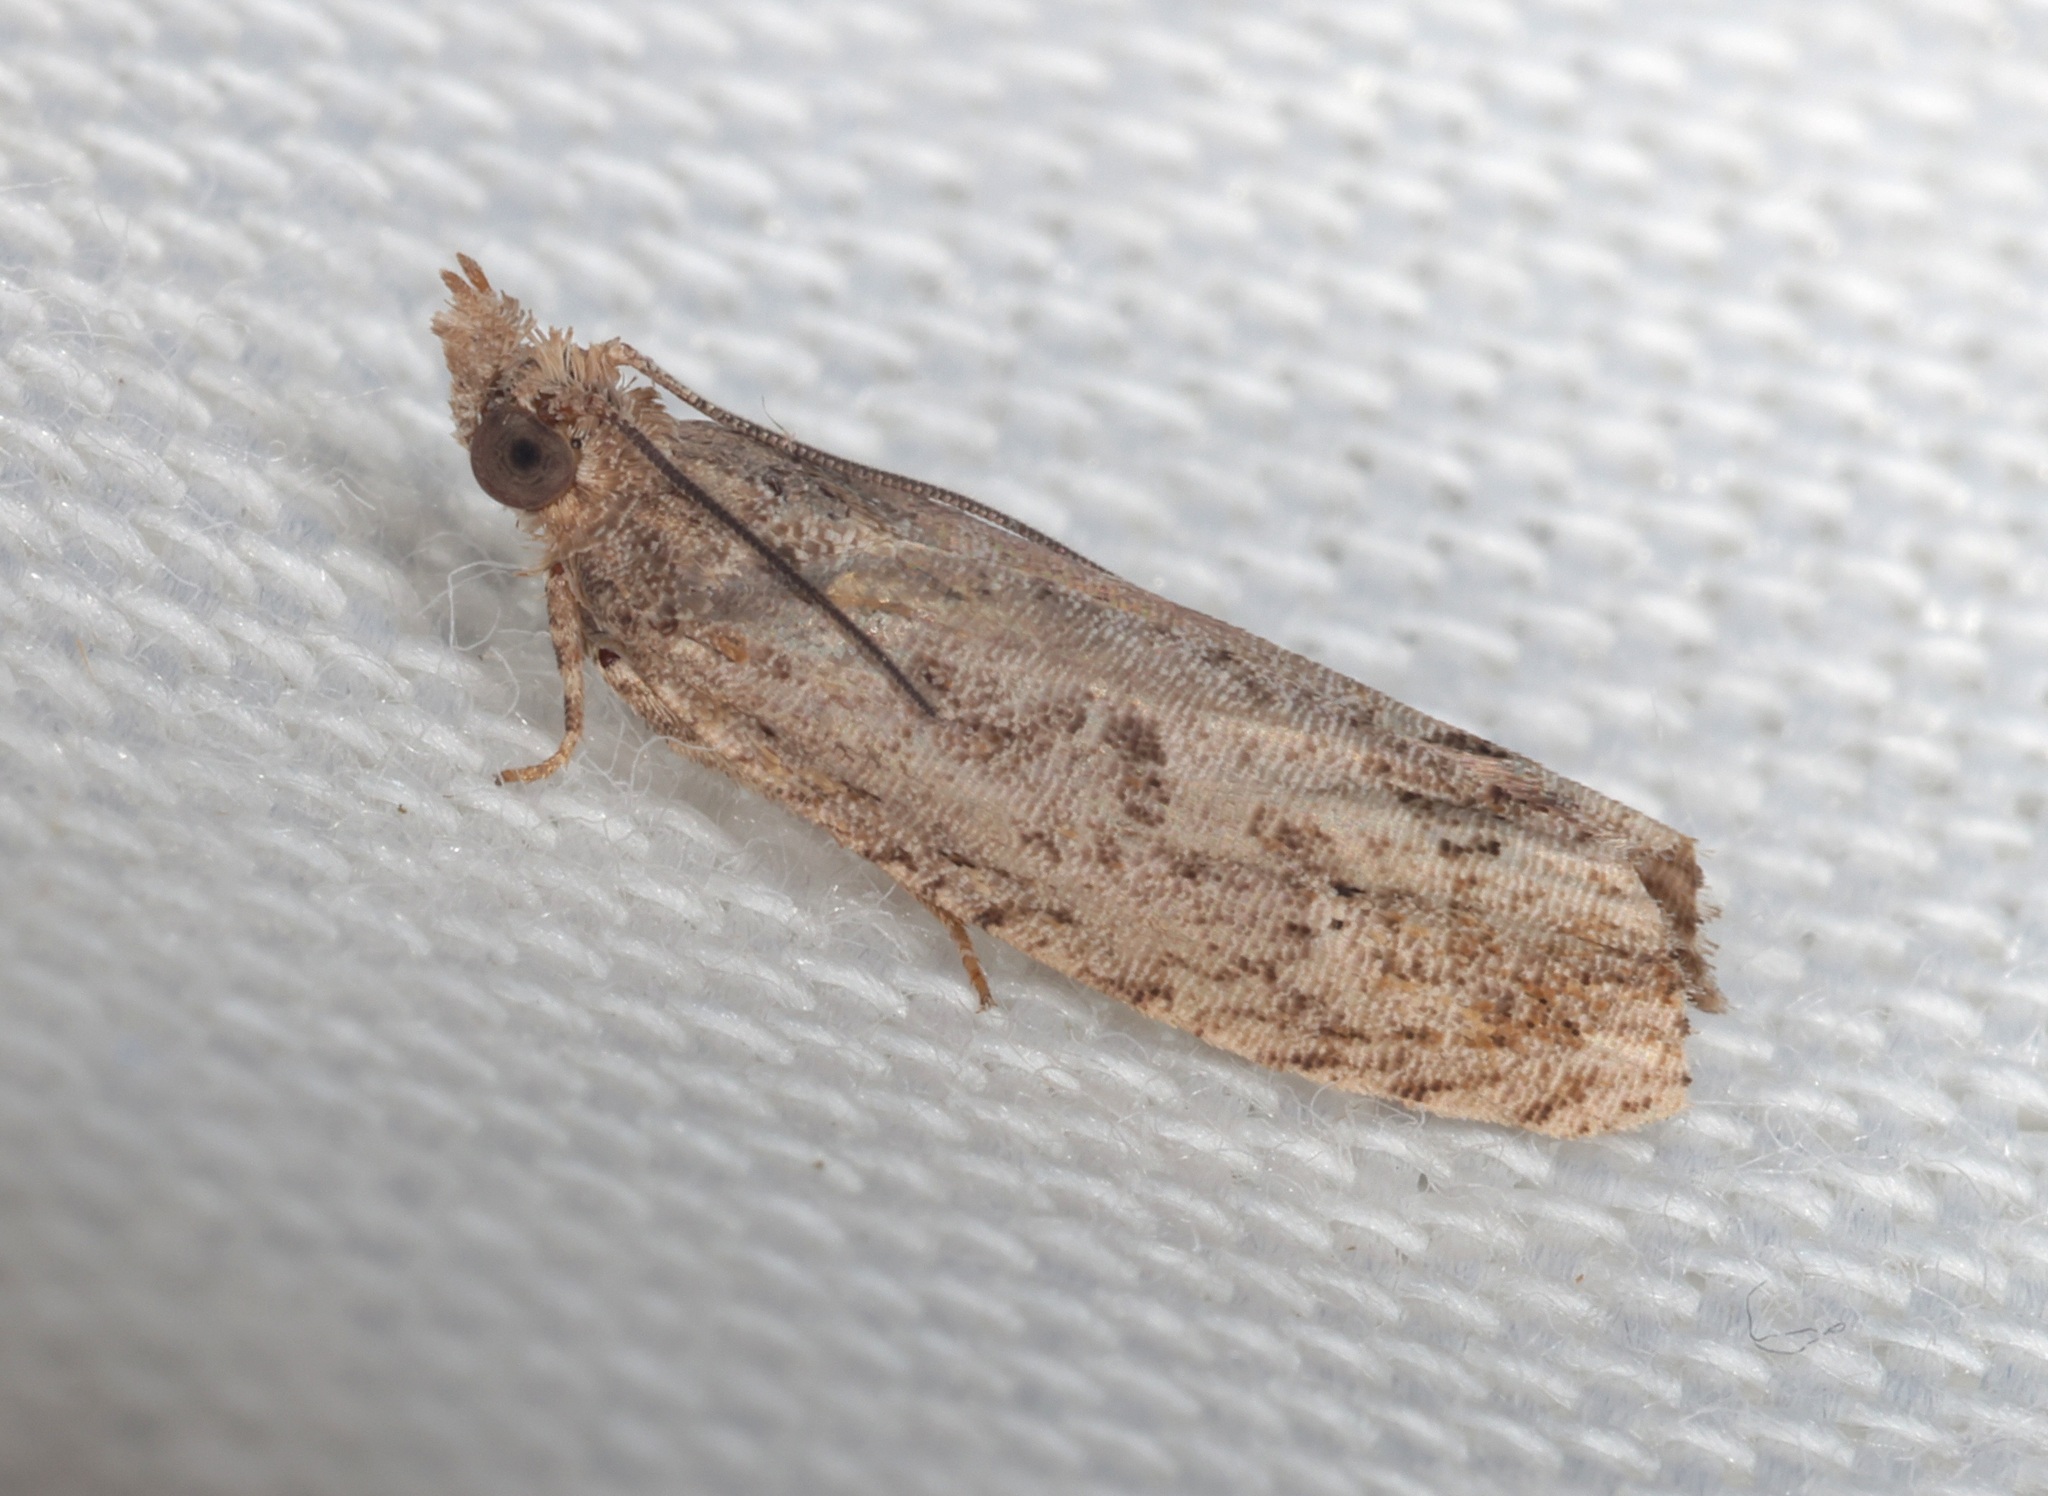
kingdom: Animalia
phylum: Arthropoda
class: Insecta
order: Lepidoptera
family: Tortricidae
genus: Strepsicrates
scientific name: Strepsicrates semicanella
